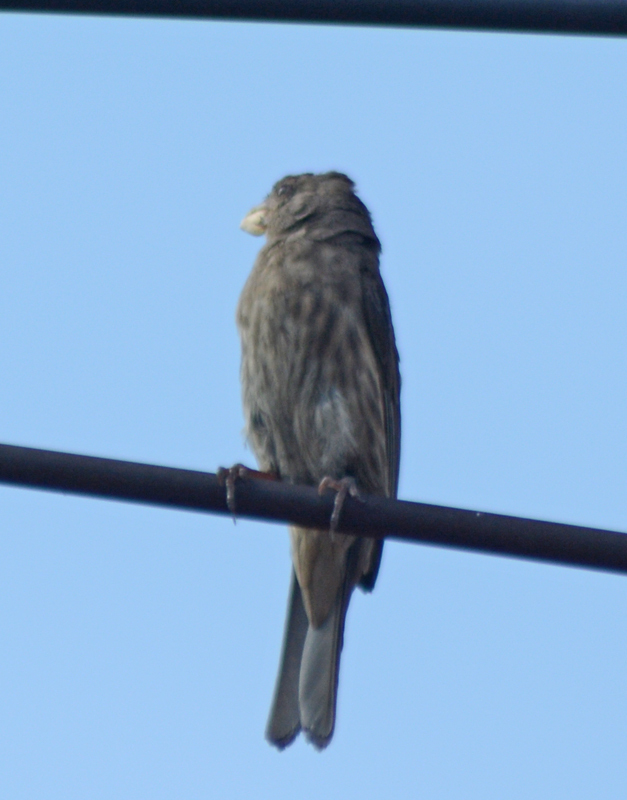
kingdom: Animalia
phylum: Chordata
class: Aves
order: Passeriformes
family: Fringillidae
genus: Haemorhous
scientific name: Haemorhous mexicanus
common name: House finch
